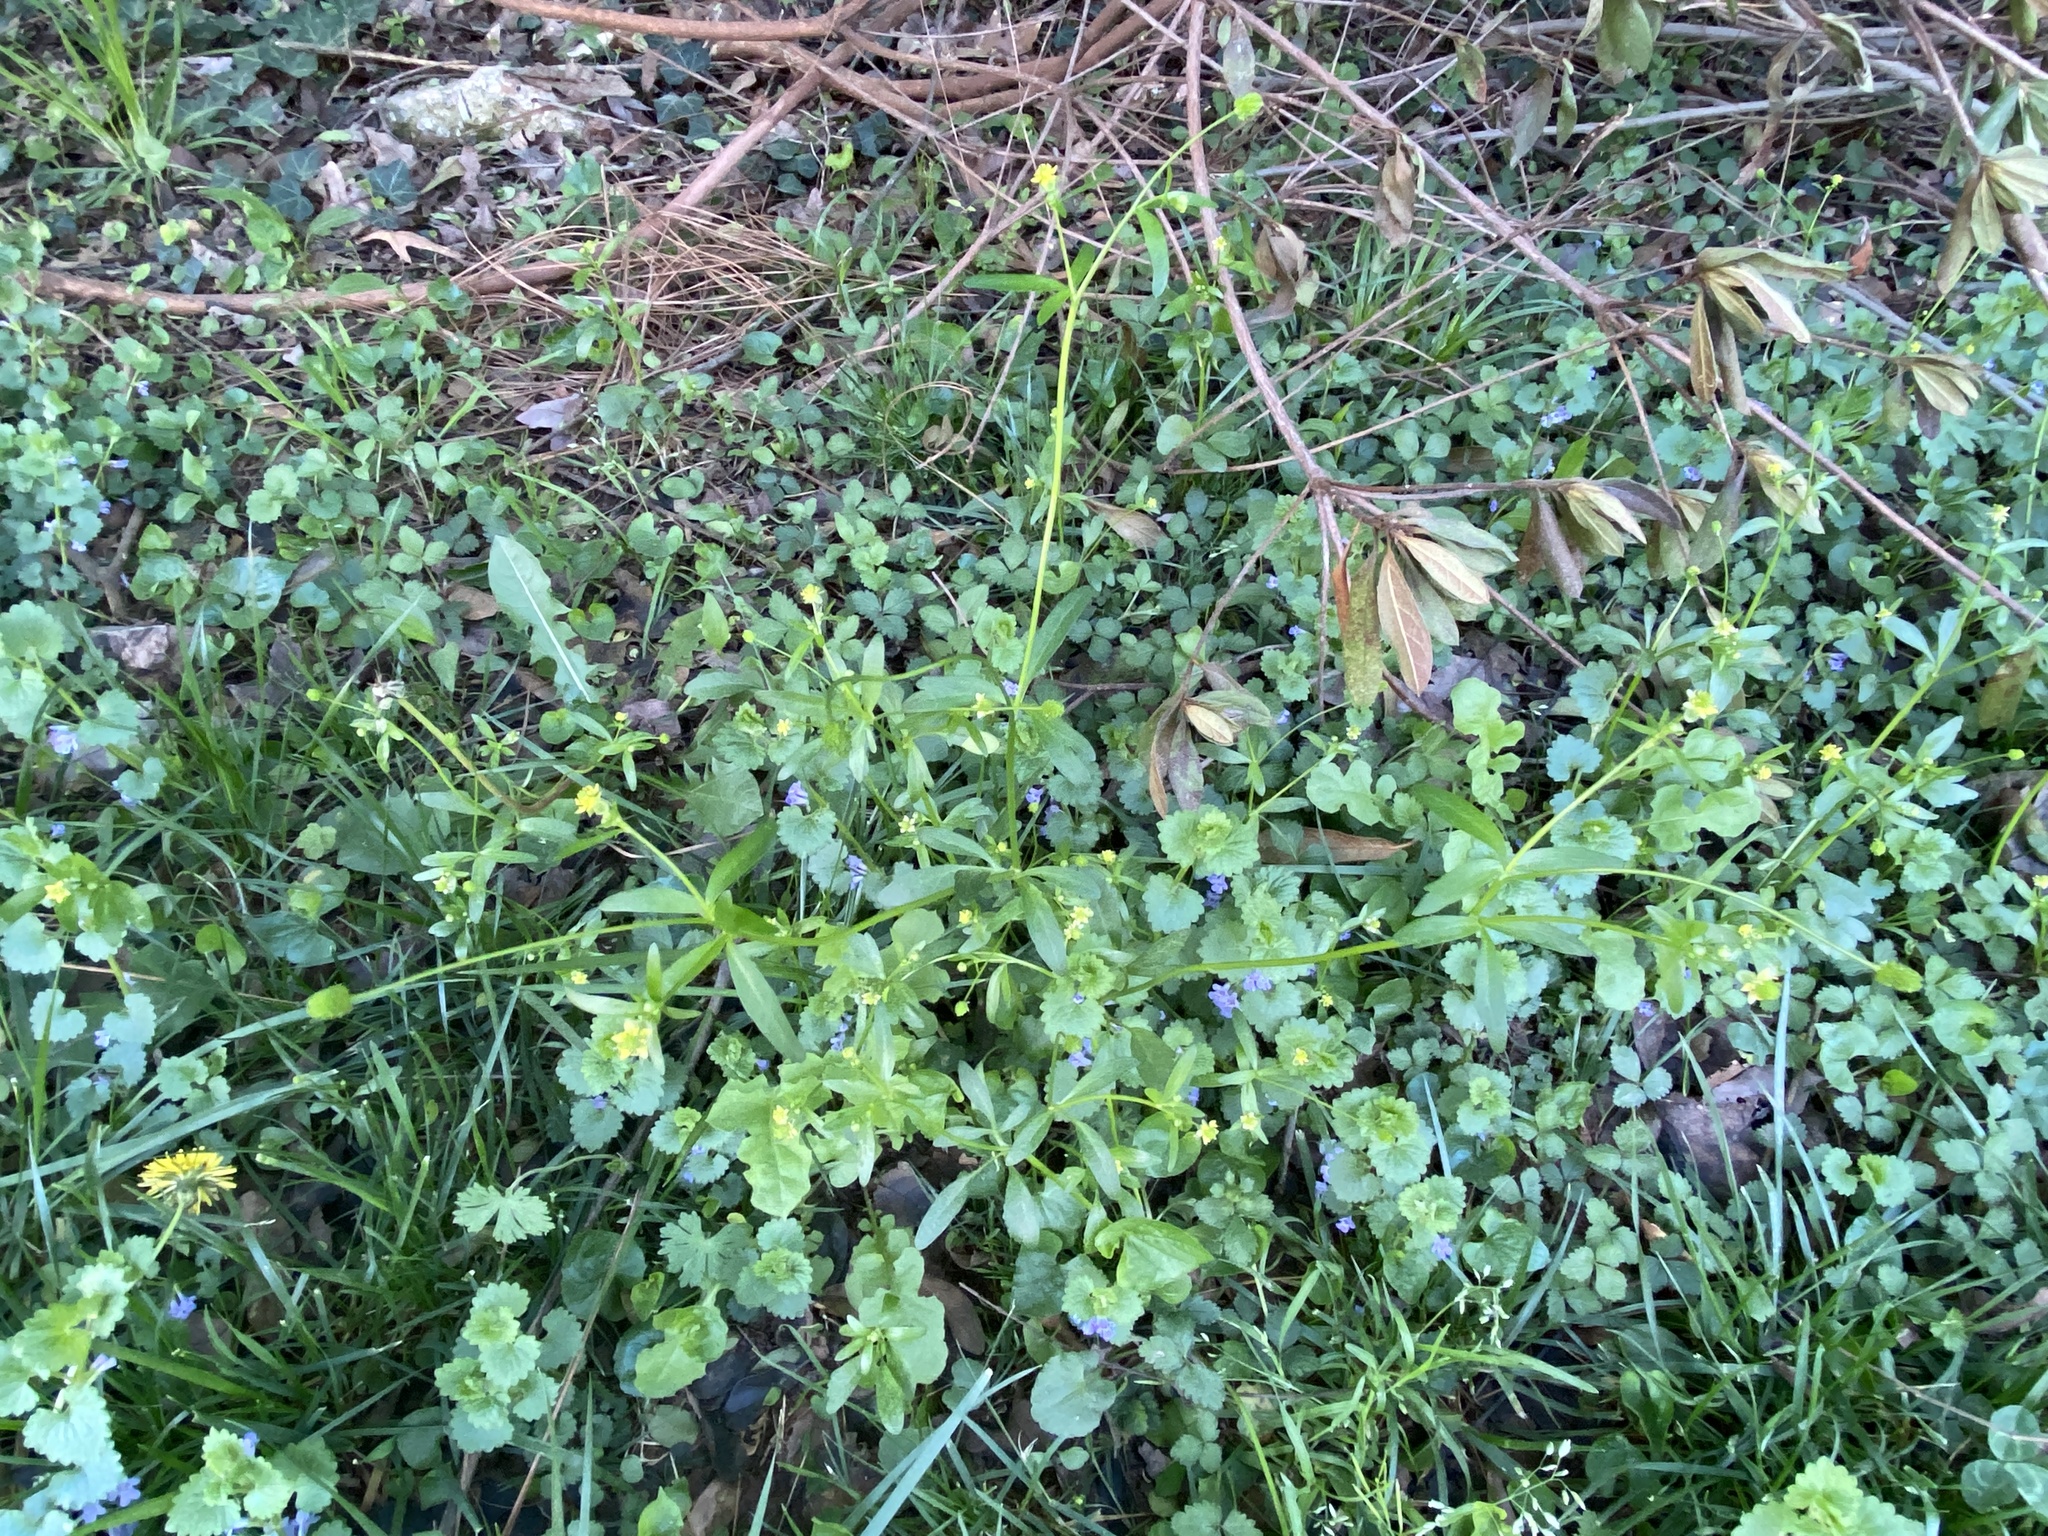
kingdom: Plantae
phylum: Tracheophyta
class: Magnoliopsida
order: Ranunculales
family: Ranunculaceae
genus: Ranunculus
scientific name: Ranunculus abortivus
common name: Early wood buttercup
